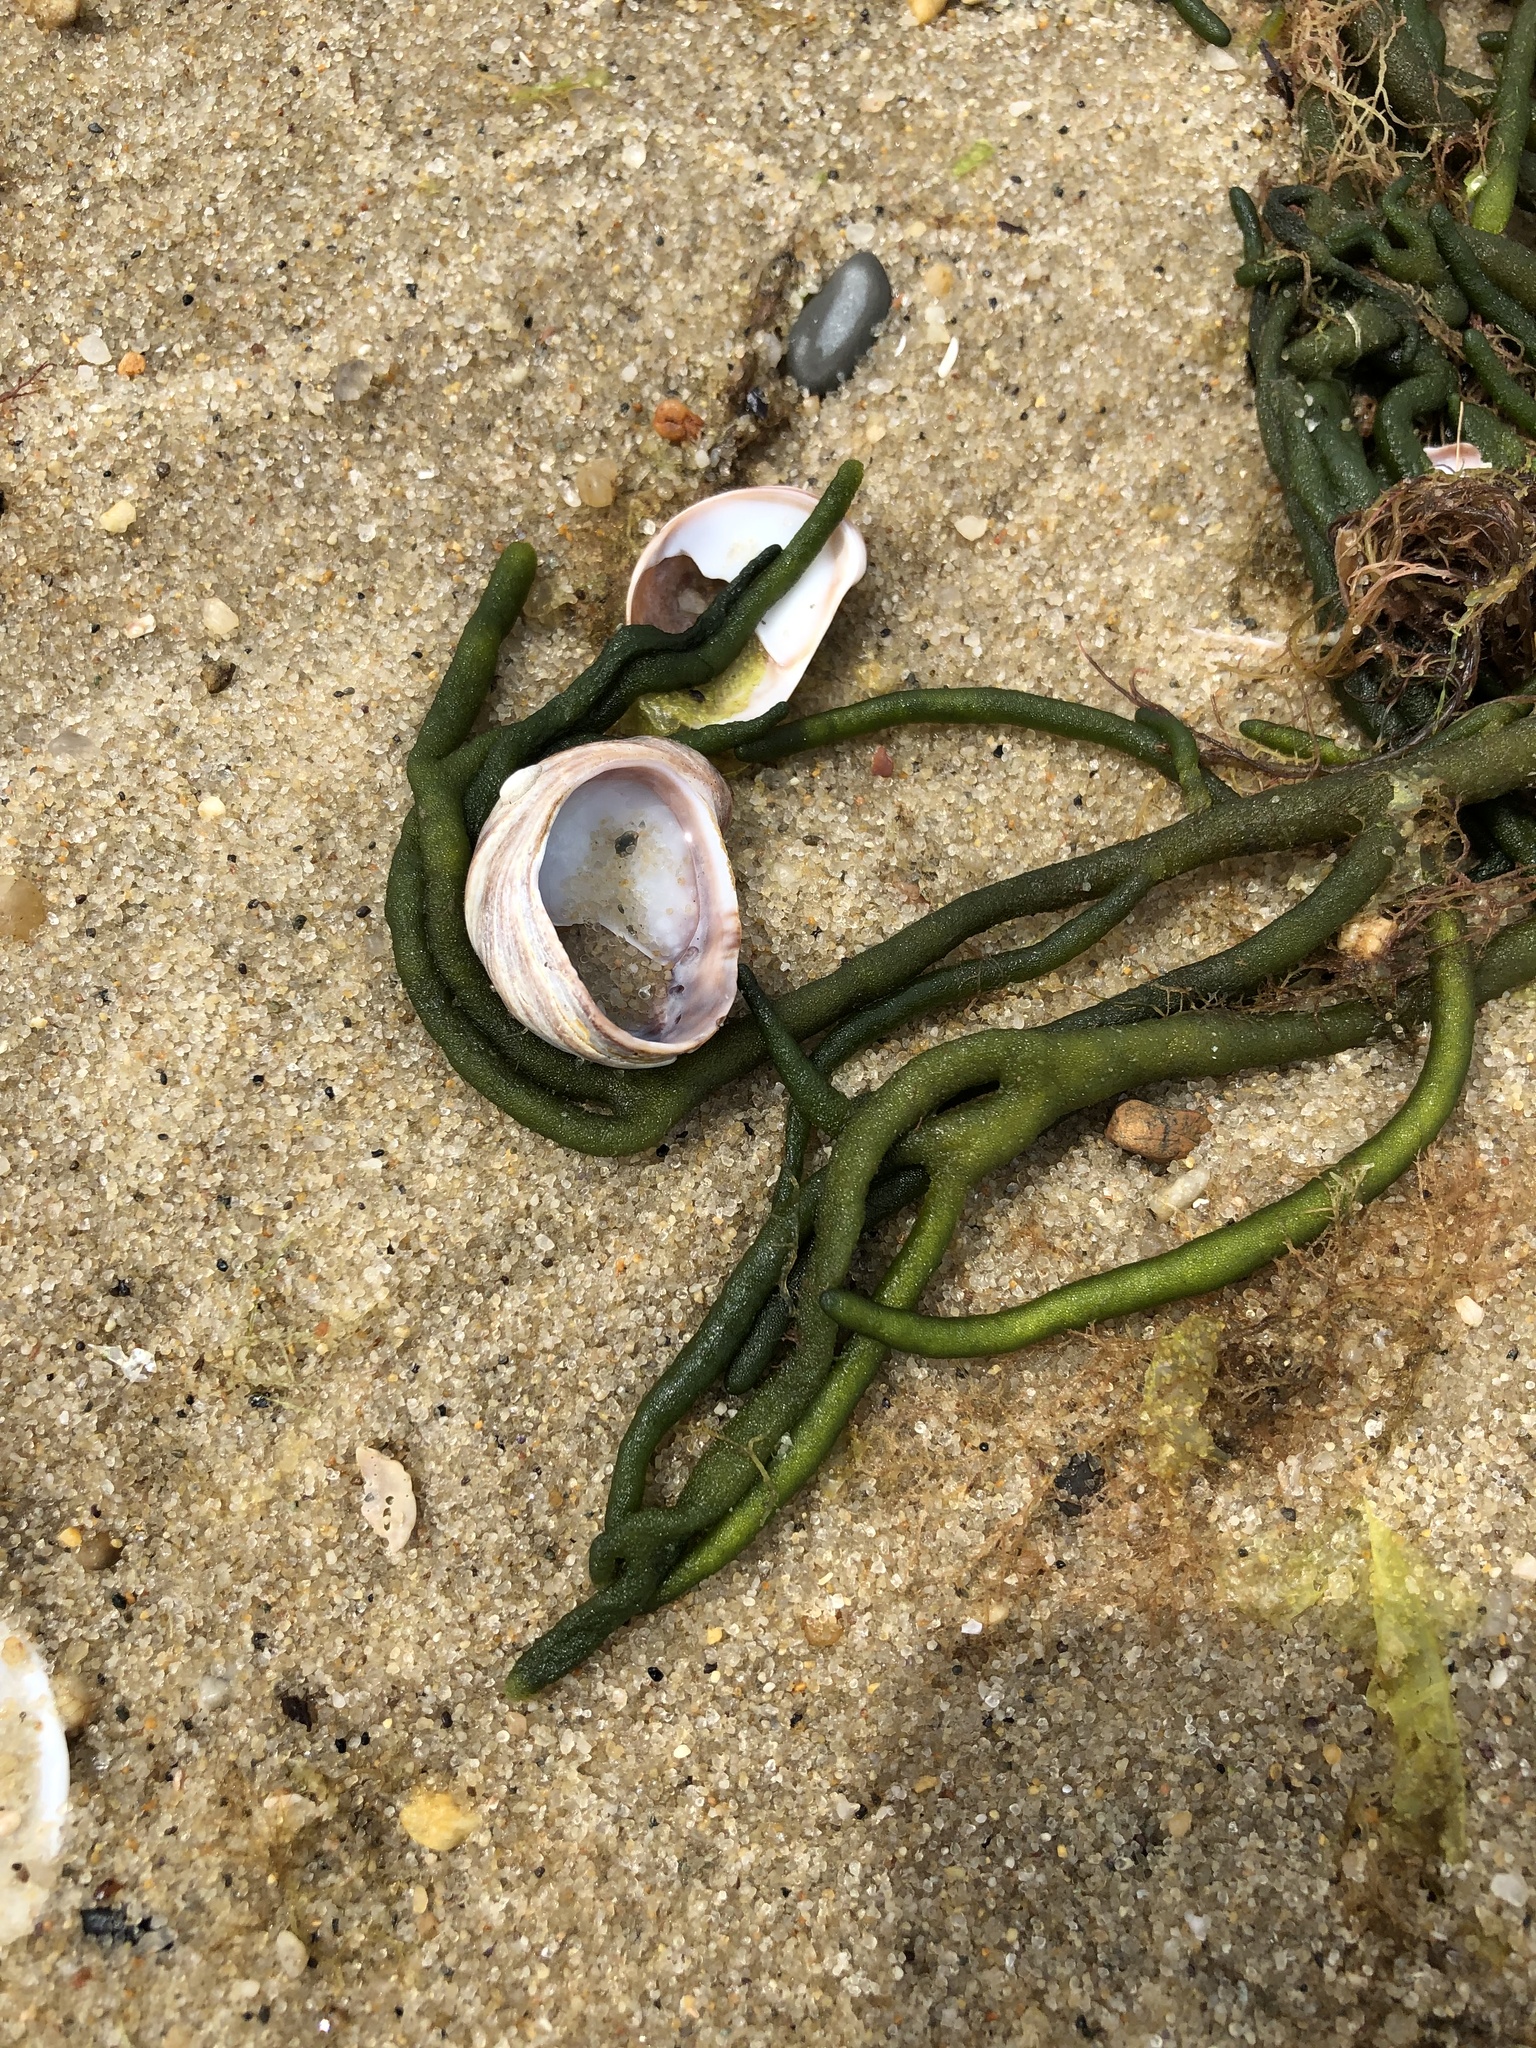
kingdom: Plantae
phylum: Chlorophyta
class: Ulvophyceae
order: Bryopsidales
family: Codiaceae
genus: Codium
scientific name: Codium fragile
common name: Dead man's fingers
